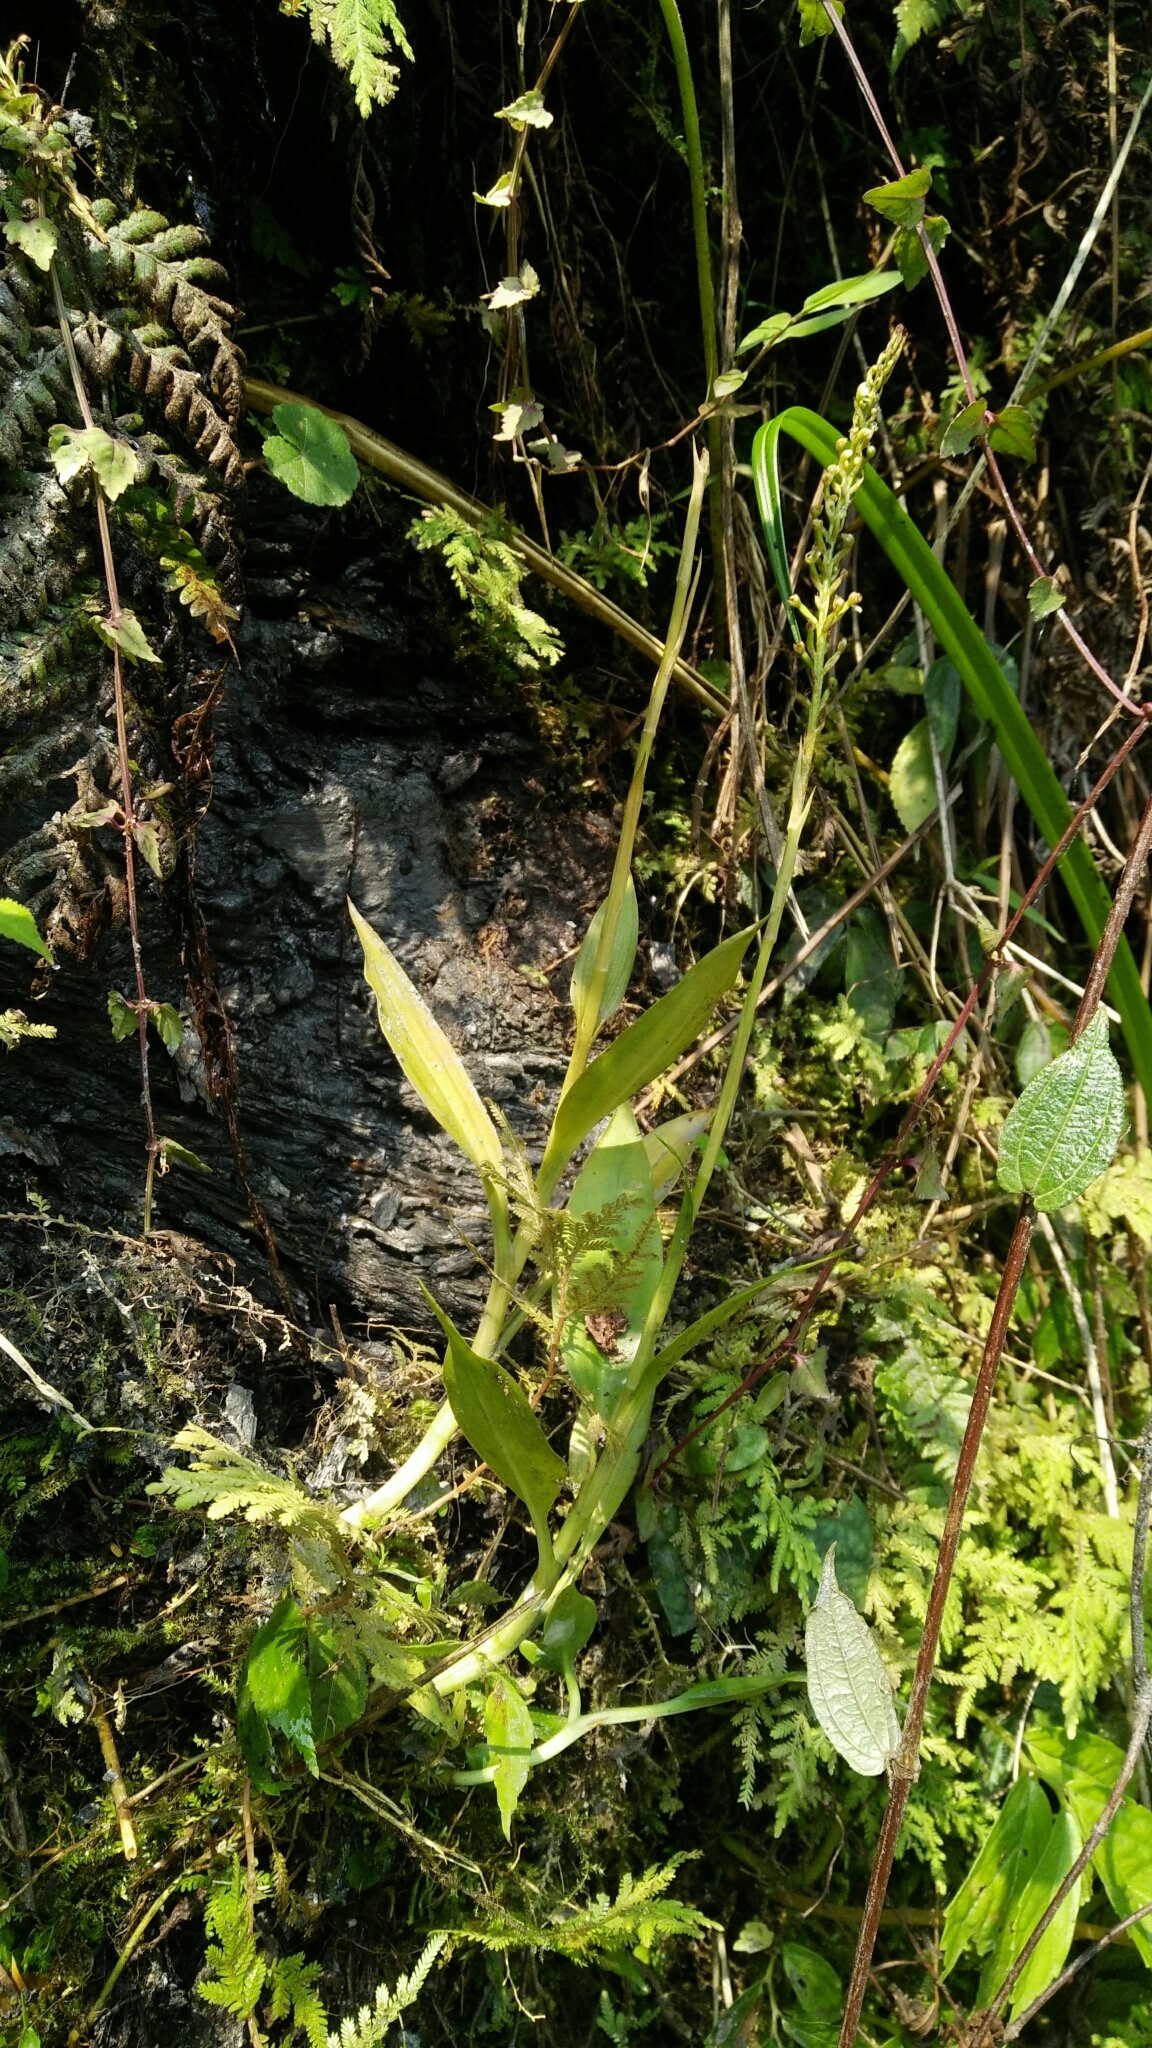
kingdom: Plantae
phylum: Tracheophyta
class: Liliopsida
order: Asparagales
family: Orchidaceae
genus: Goodyera
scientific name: Goodyera procera
